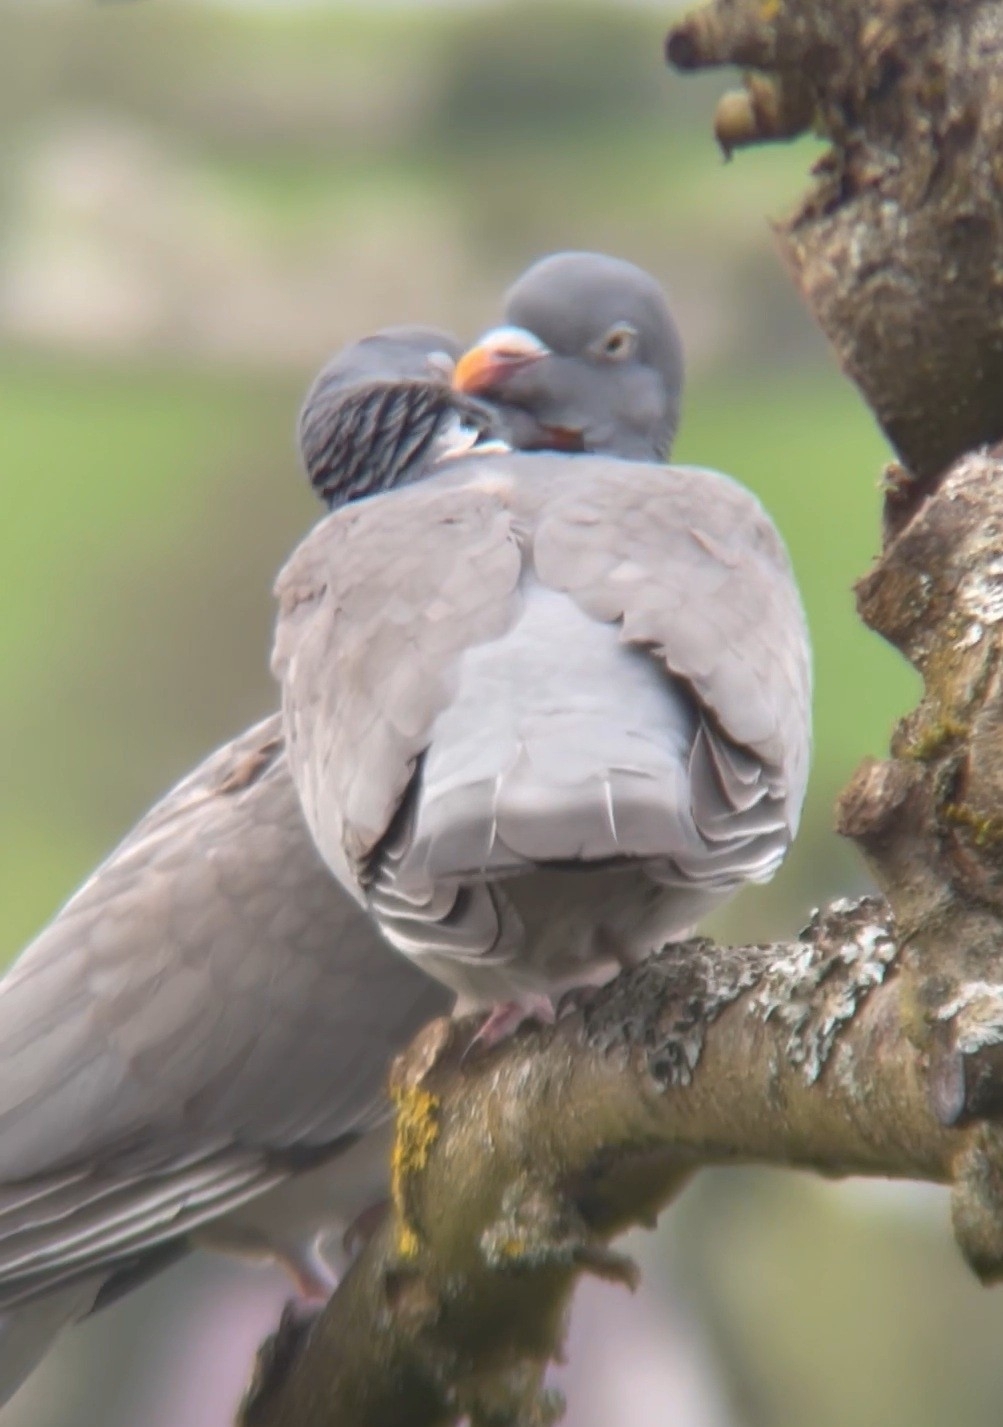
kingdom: Animalia
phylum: Chordata
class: Aves
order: Columbiformes
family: Columbidae
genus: Columba
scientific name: Columba palumbus
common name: Common wood pigeon
